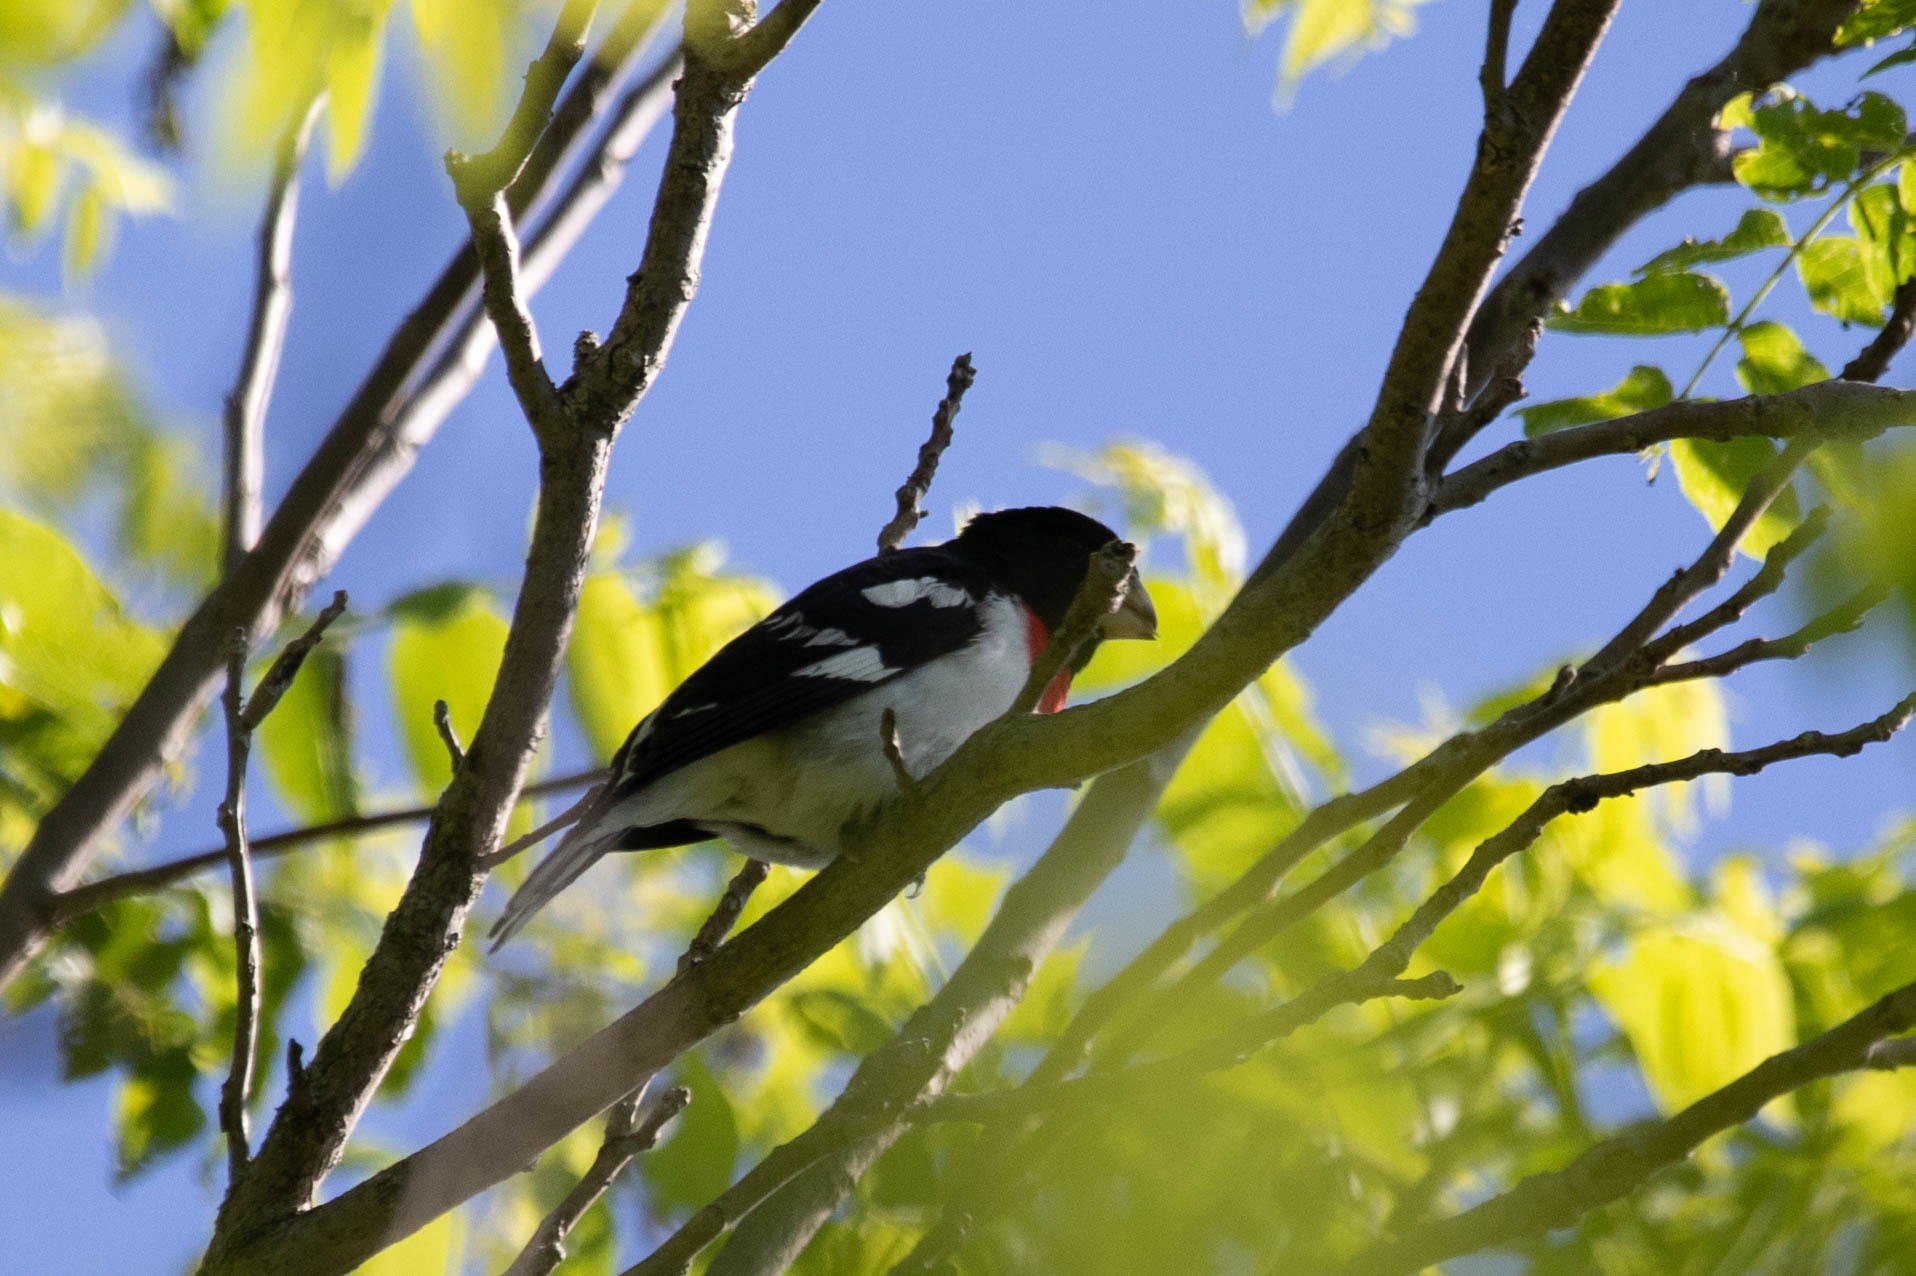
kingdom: Animalia
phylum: Chordata
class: Aves
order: Passeriformes
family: Cardinalidae
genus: Pheucticus
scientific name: Pheucticus ludovicianus
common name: Rose-breasted grosbeak
